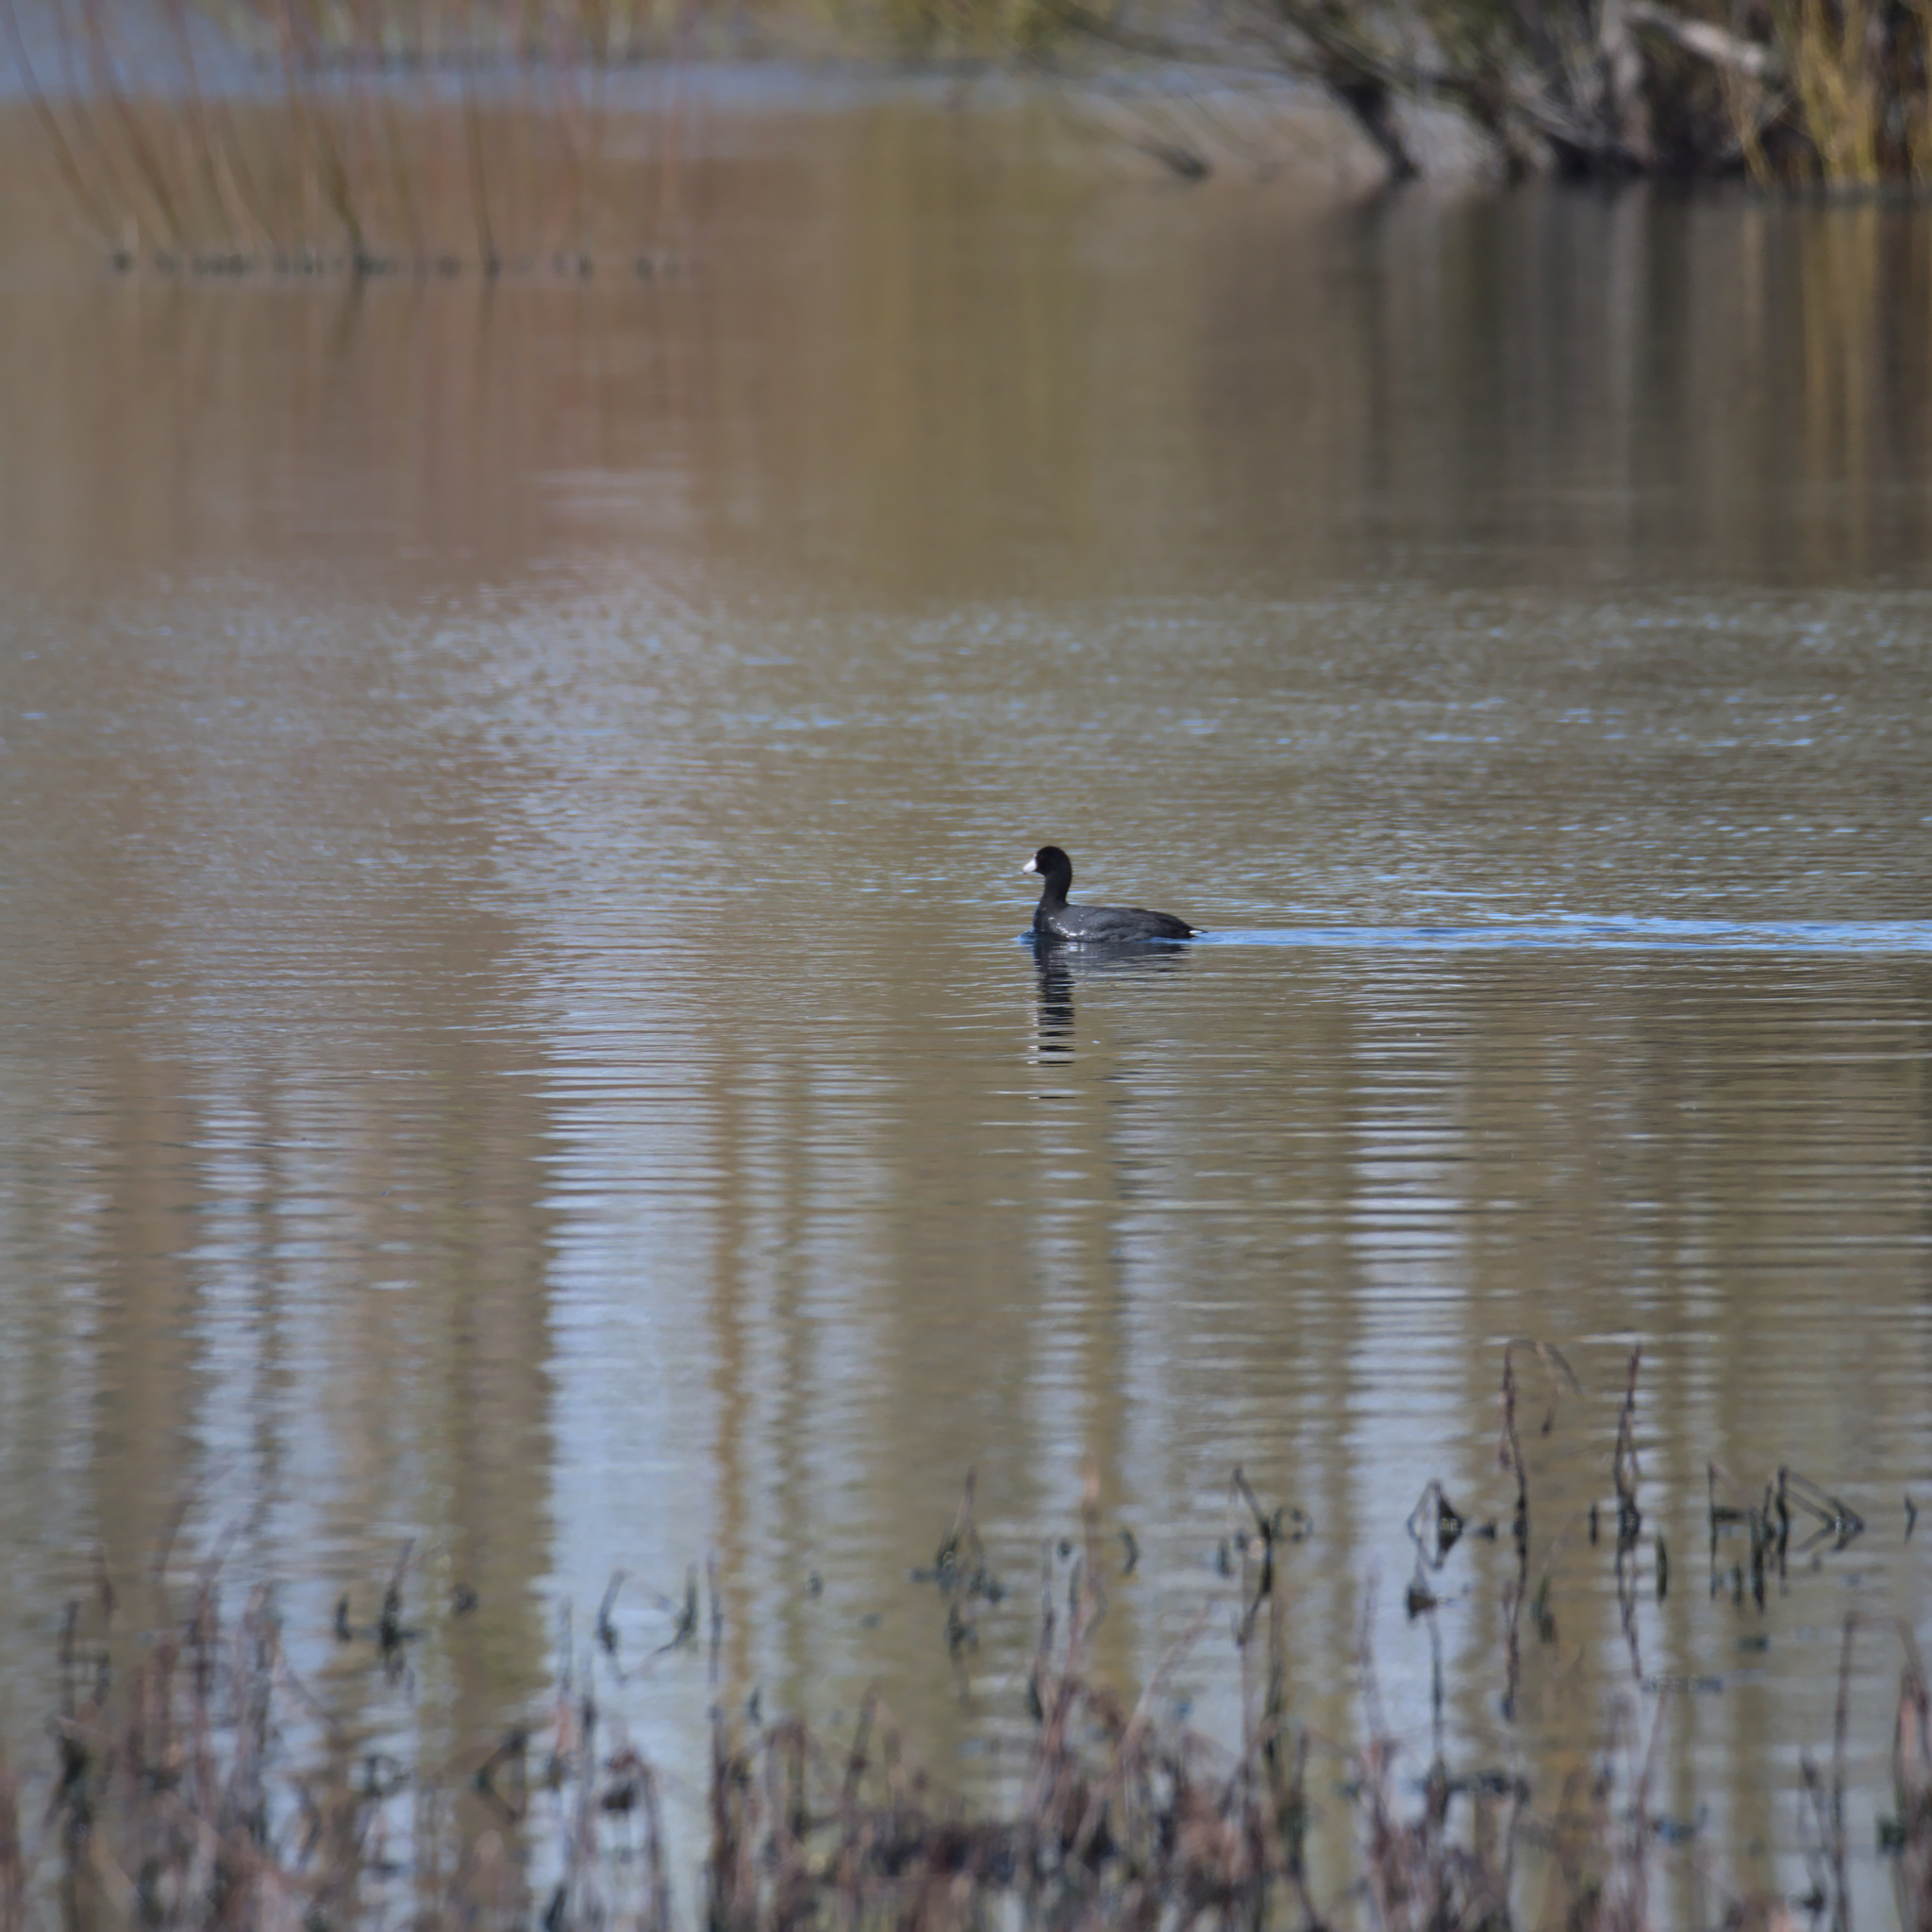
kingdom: Animalia
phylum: Chordata
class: Aves
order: Gruiformes
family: Rallidae
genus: Fulica
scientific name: Fulica americana
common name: American coot
